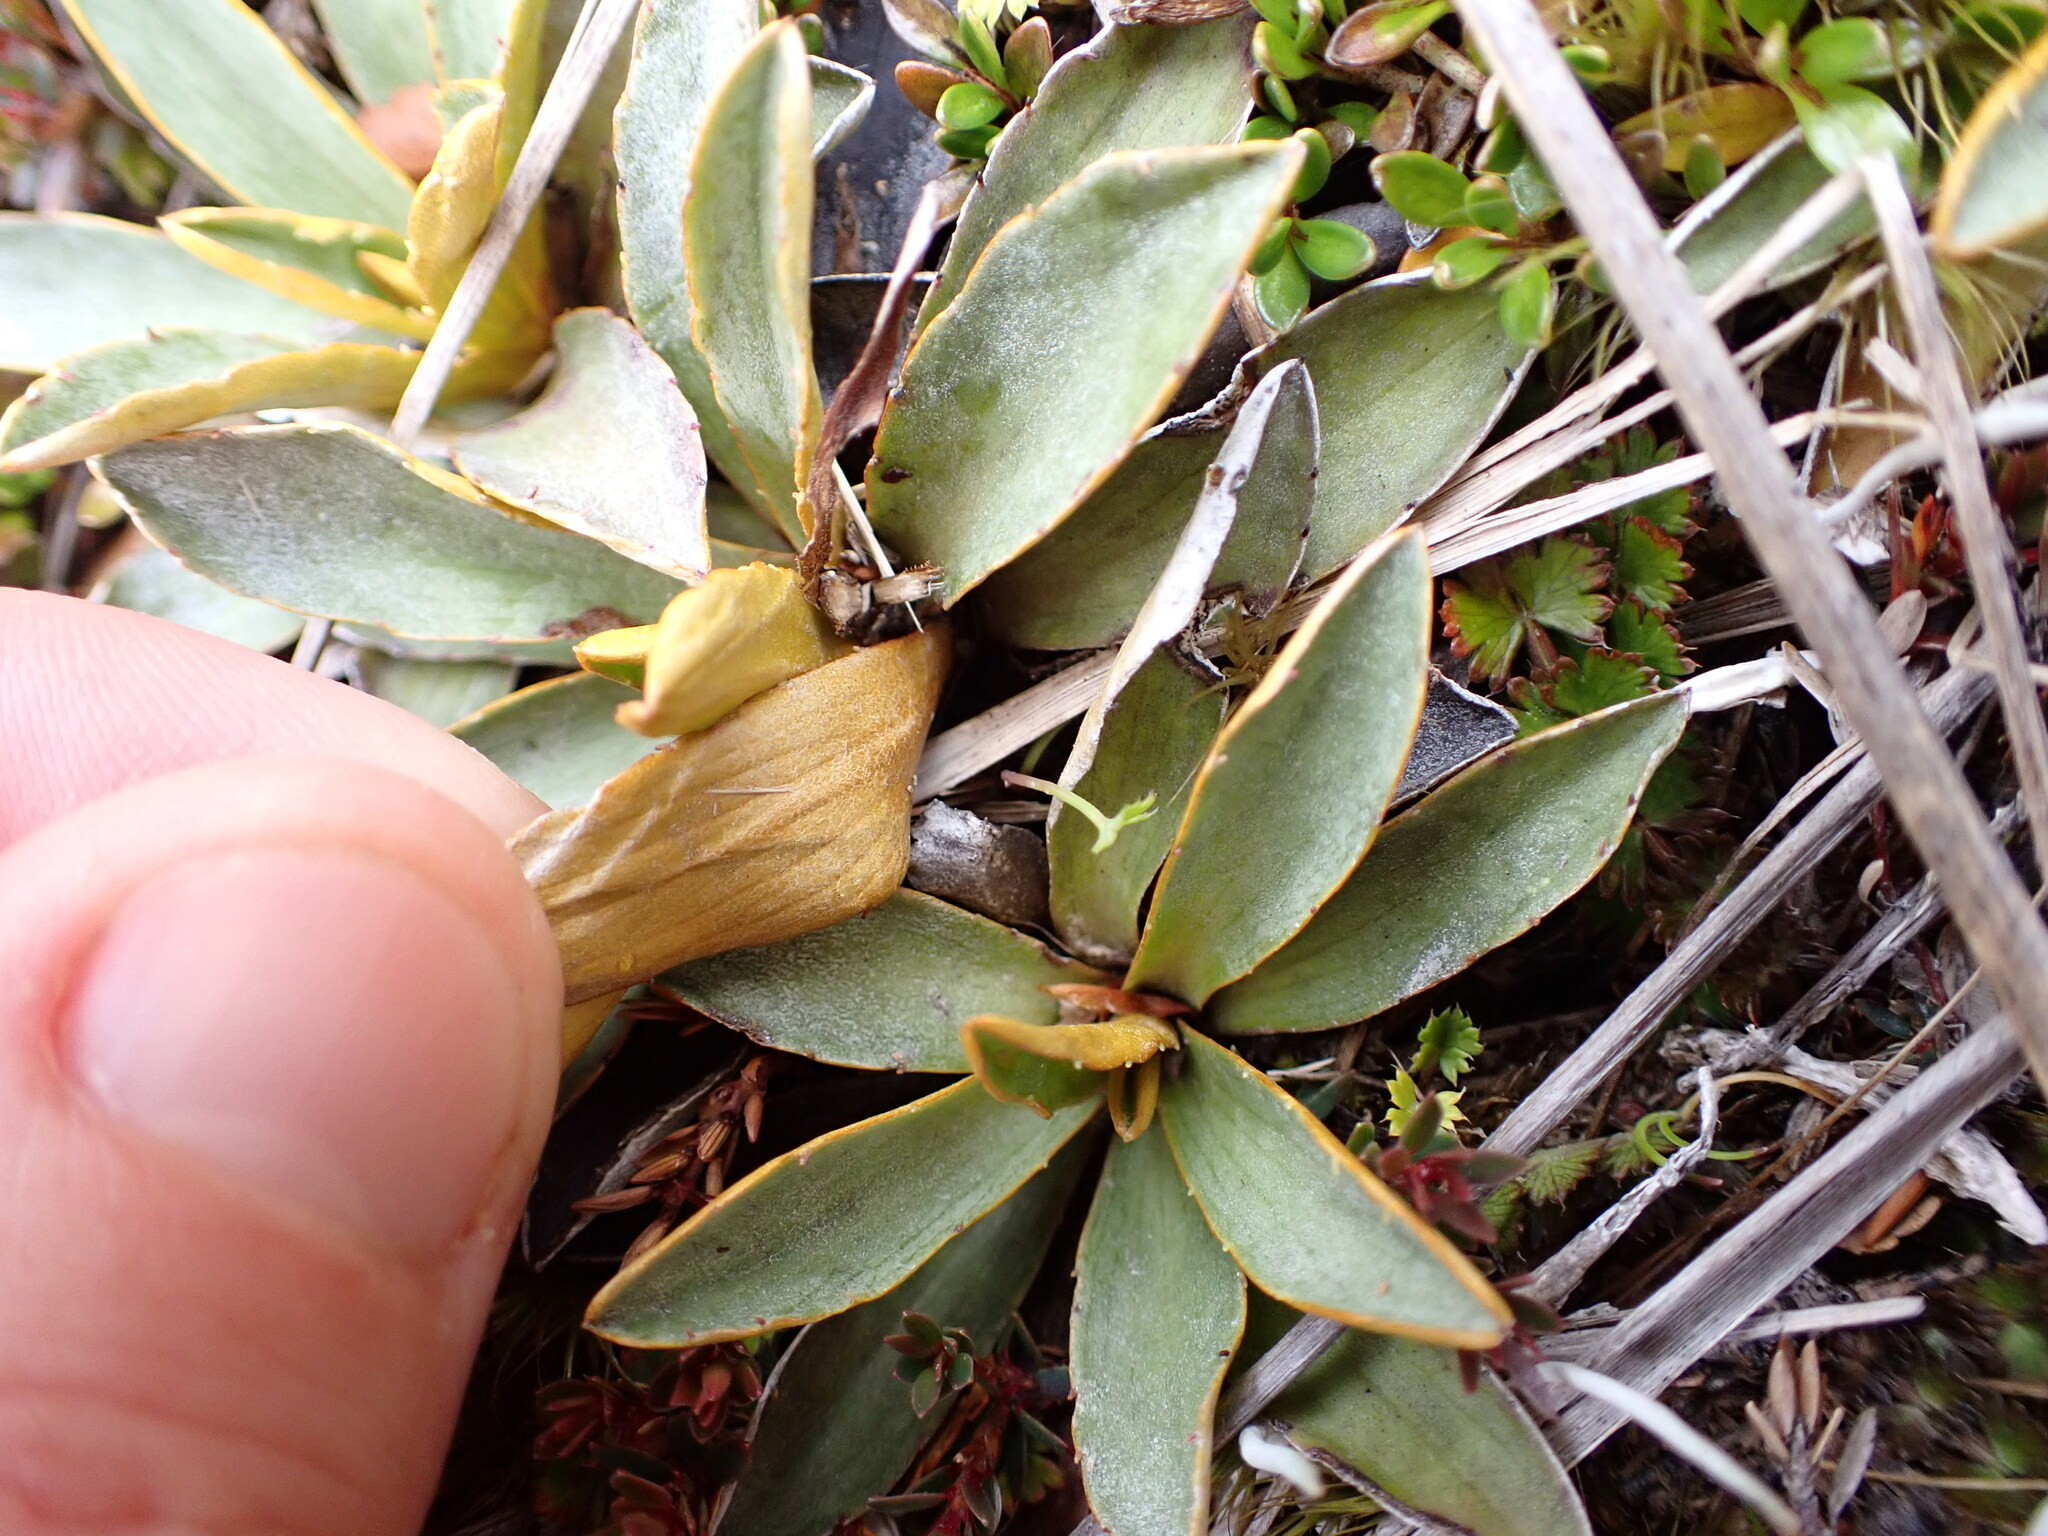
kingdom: Plantae
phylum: Tracheophyta
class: Magnoliopsida
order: Asterales
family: Asteraceae
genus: Celmisia
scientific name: Celmisia hieraciifolia
